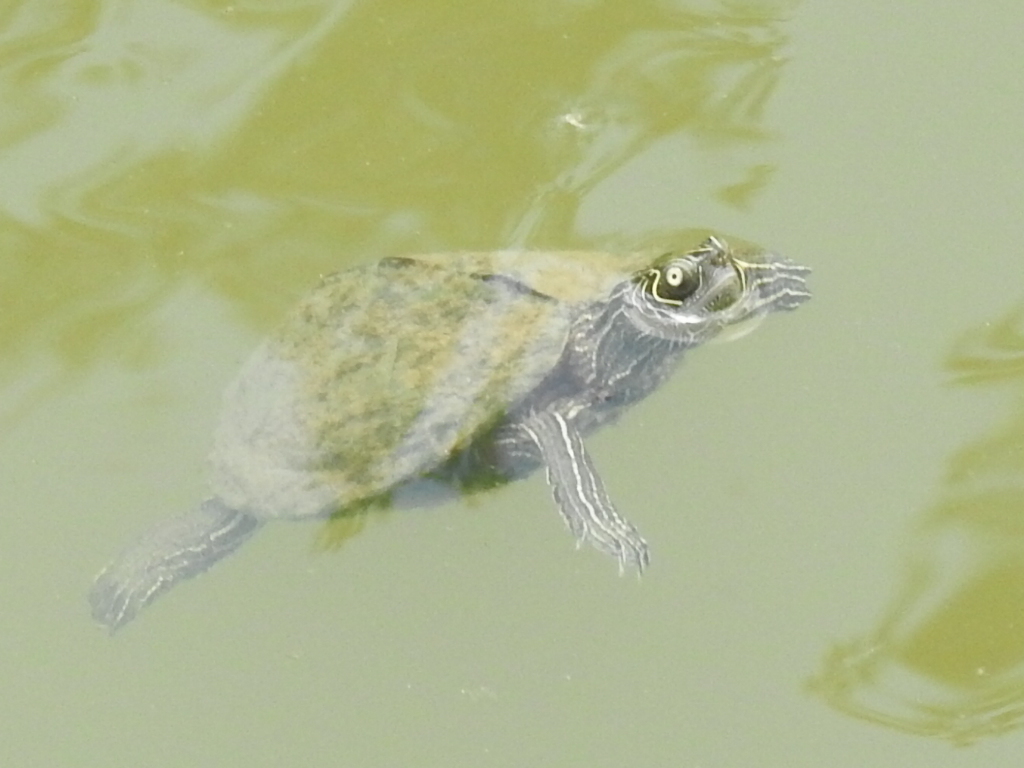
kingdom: Animalia
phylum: Chordata
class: Testudines
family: Emydidae
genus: Graptemys
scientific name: Graptemys pseudogeographica
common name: False map turtle
